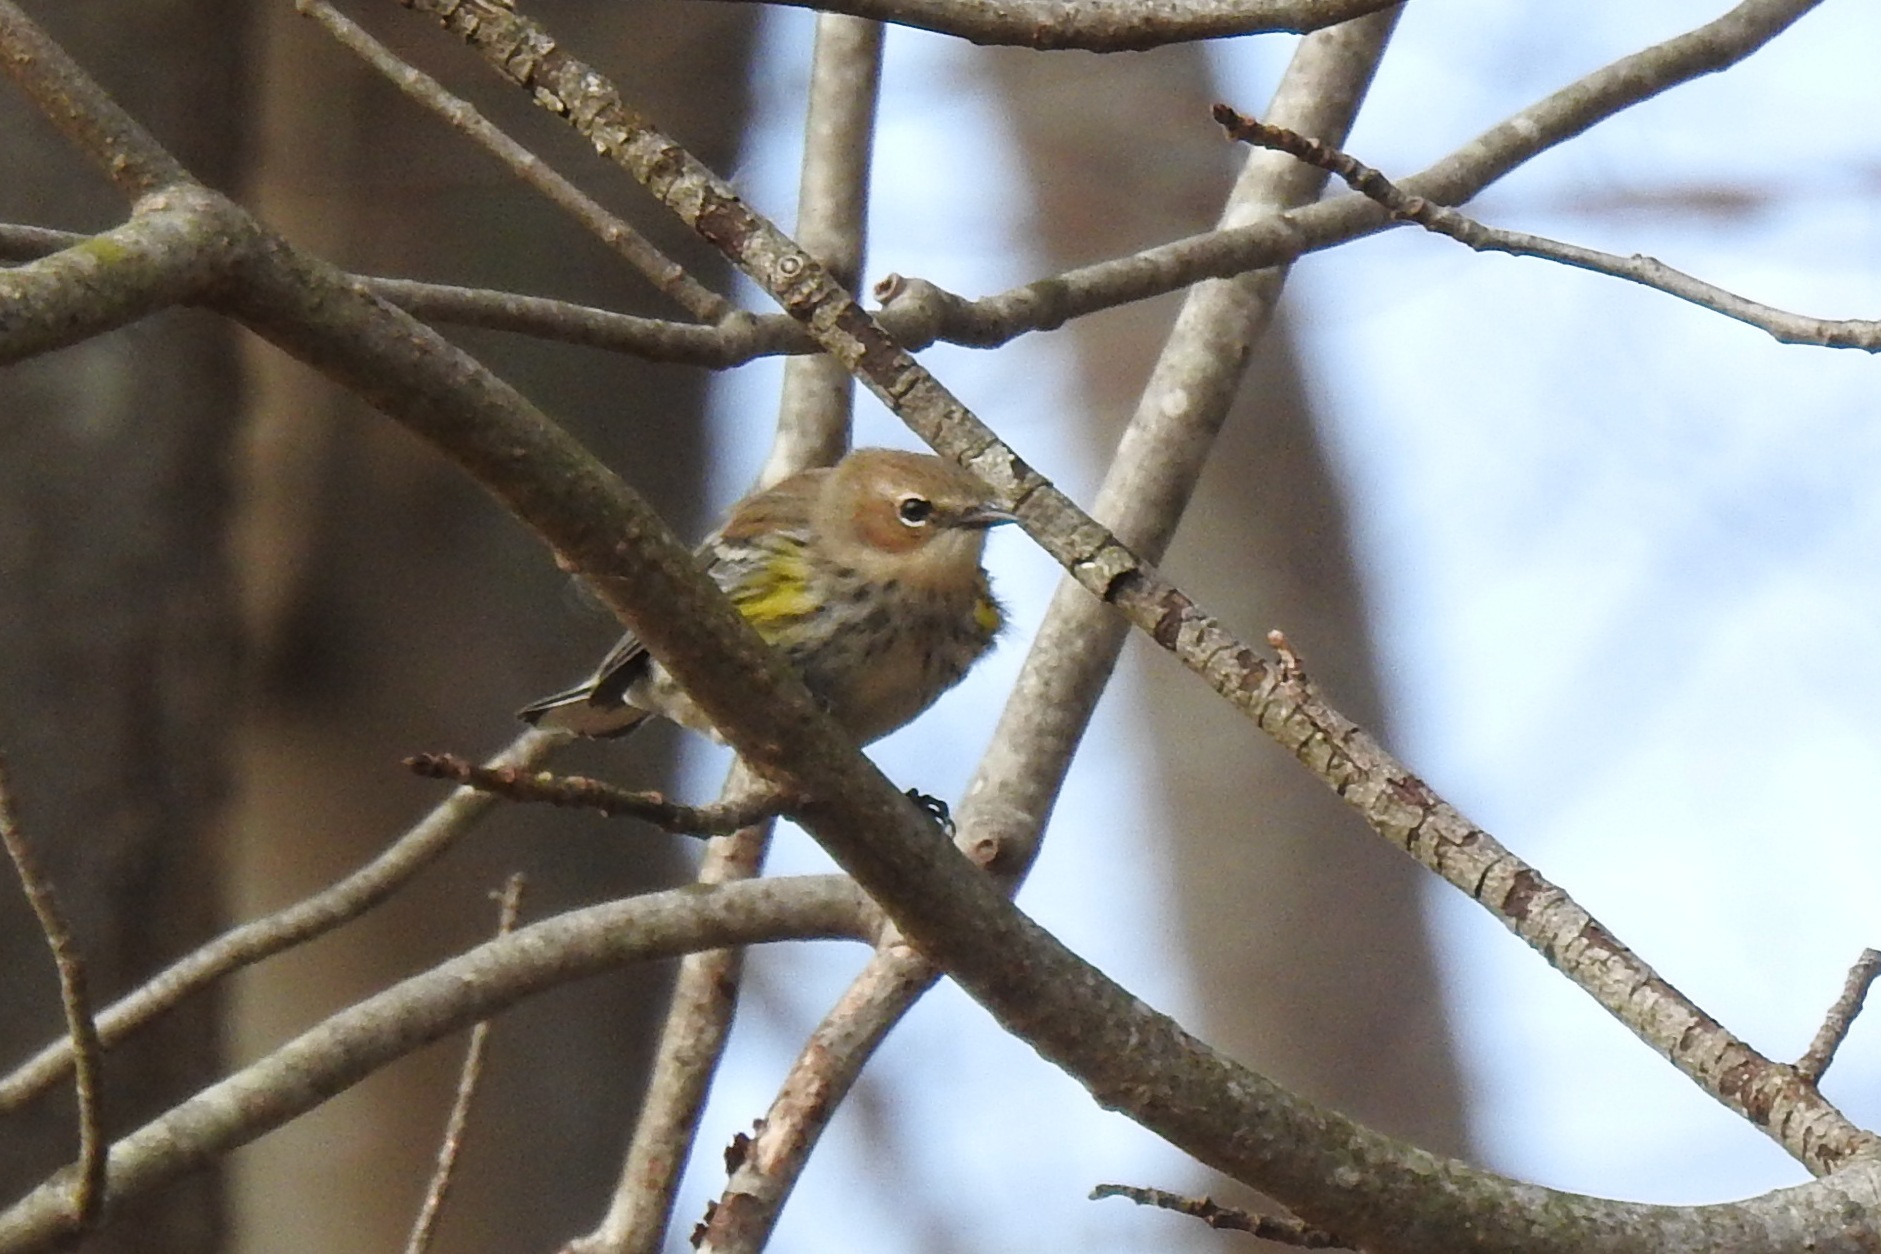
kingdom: Animalia
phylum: Chordata
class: Aves
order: Passeriformes
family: Parulidae
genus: Setophaga
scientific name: Setophaga coronata
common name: Myrtle warbler
